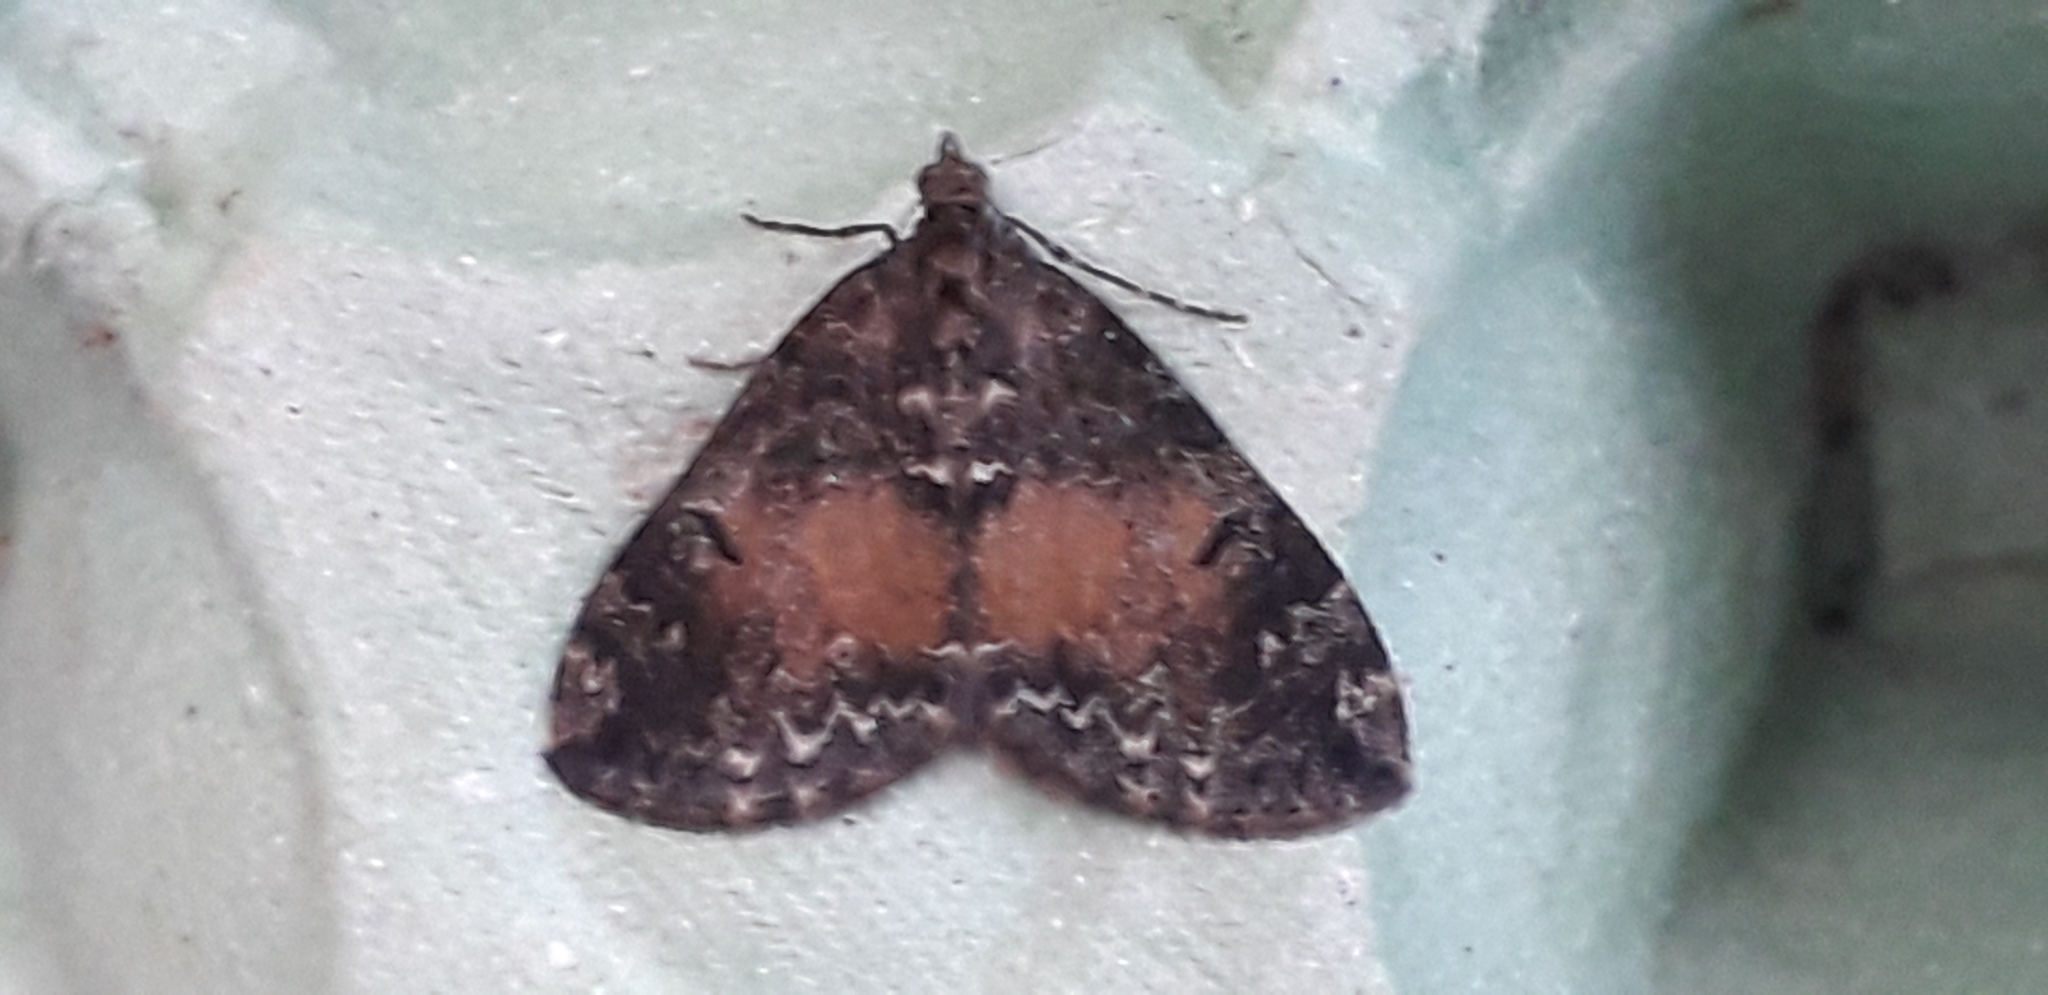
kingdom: Animalia
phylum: Arthropoda
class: Insecta
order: Lepidoptera
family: Geometridae
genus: Dysstroma
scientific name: Dysstroma truncata
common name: Common marbled carpet
